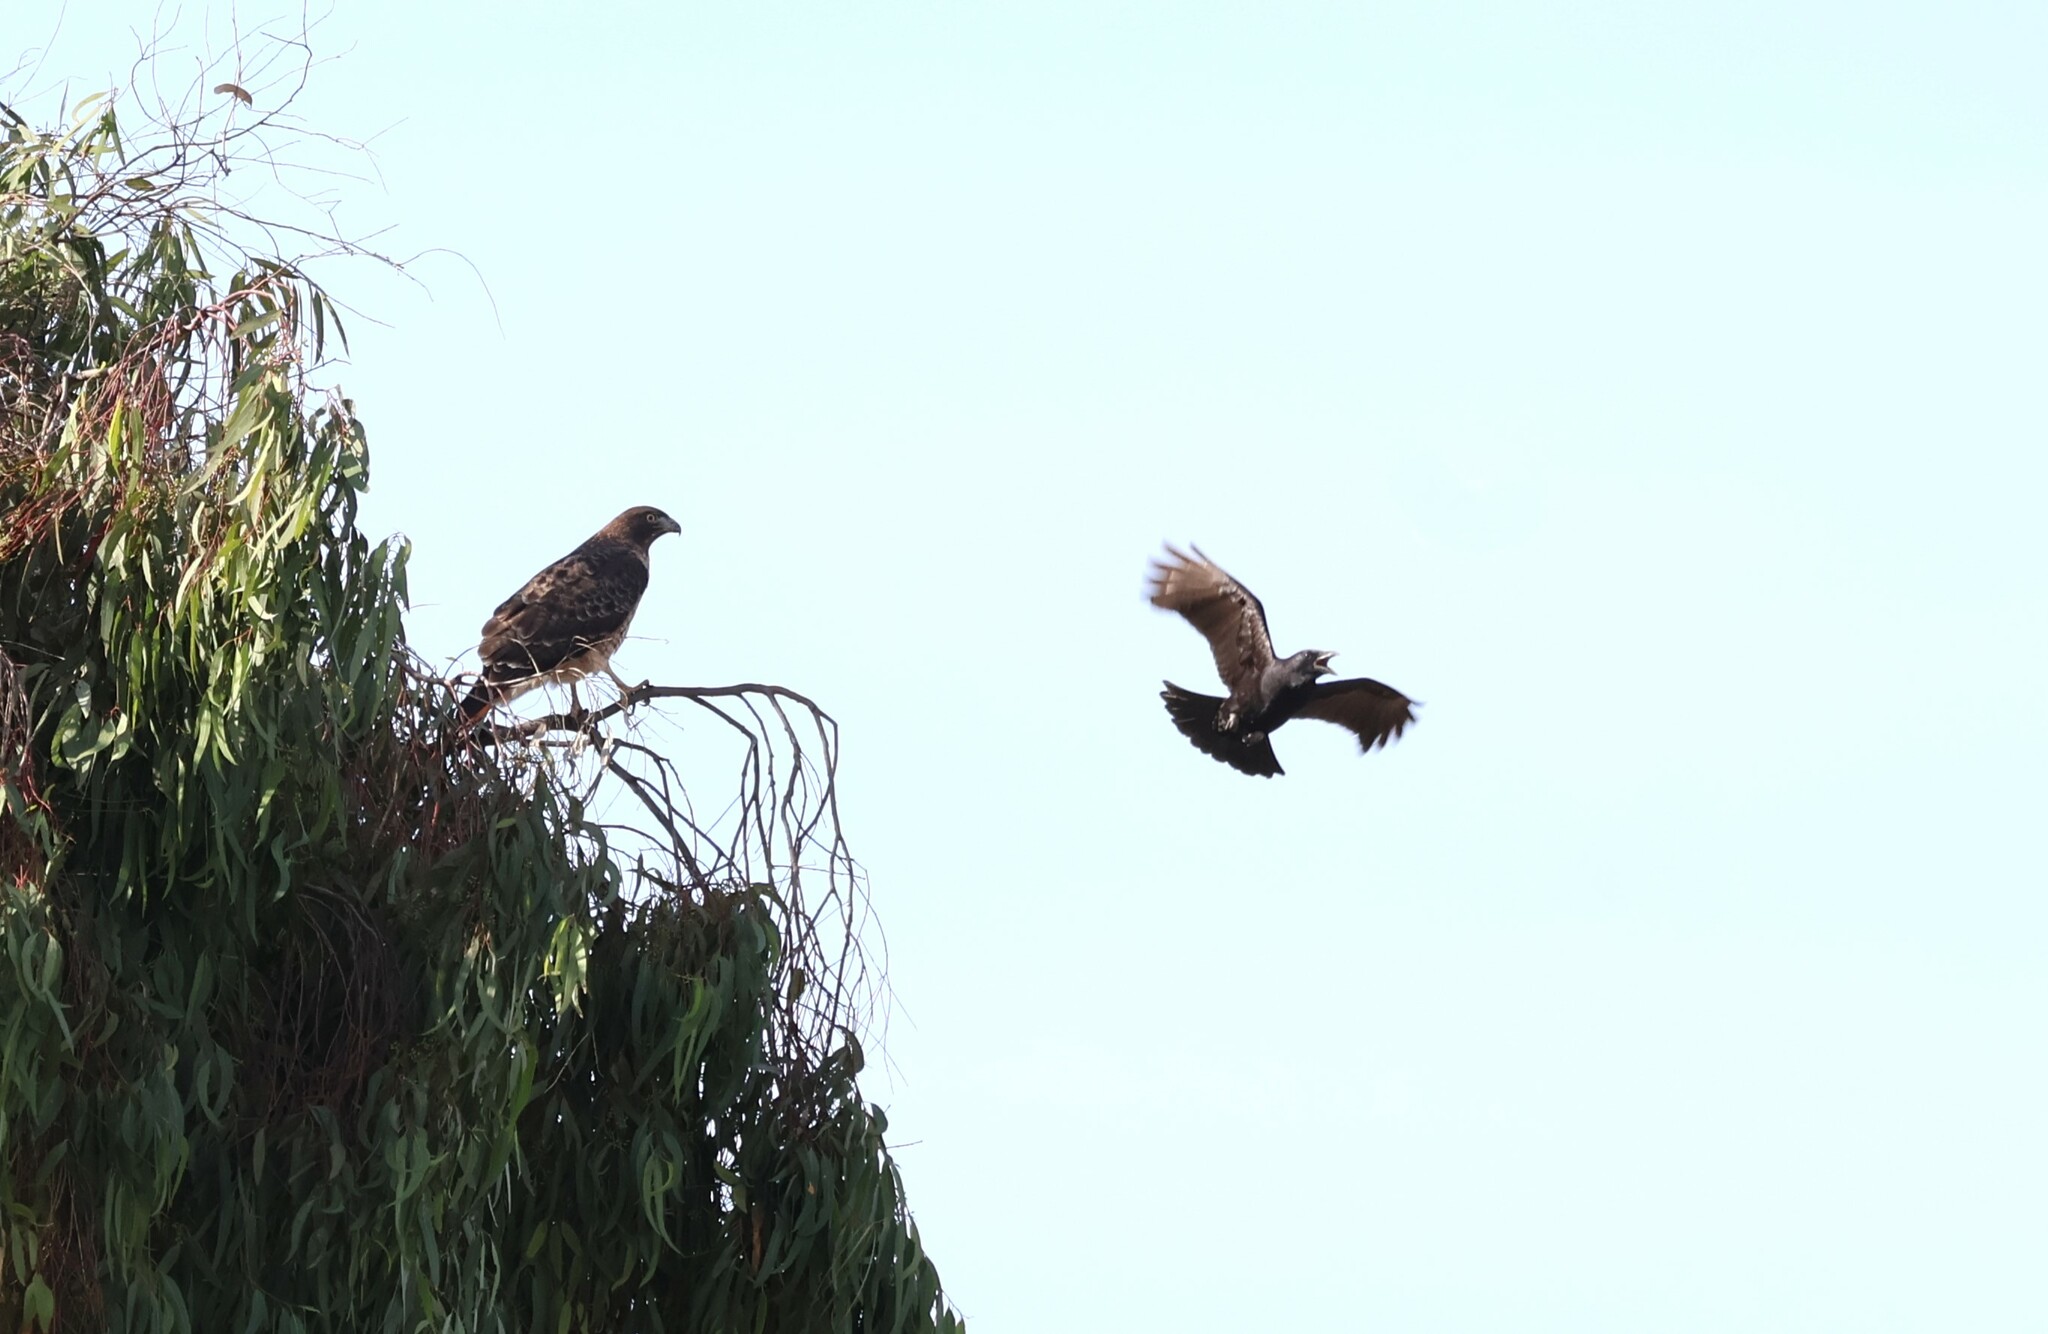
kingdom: Animalia
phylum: Chordata
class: Aves
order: Accipitriformes
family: Accipitridae
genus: Buteo
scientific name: Buteo jamaicensis
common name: Red-tailed hawk
